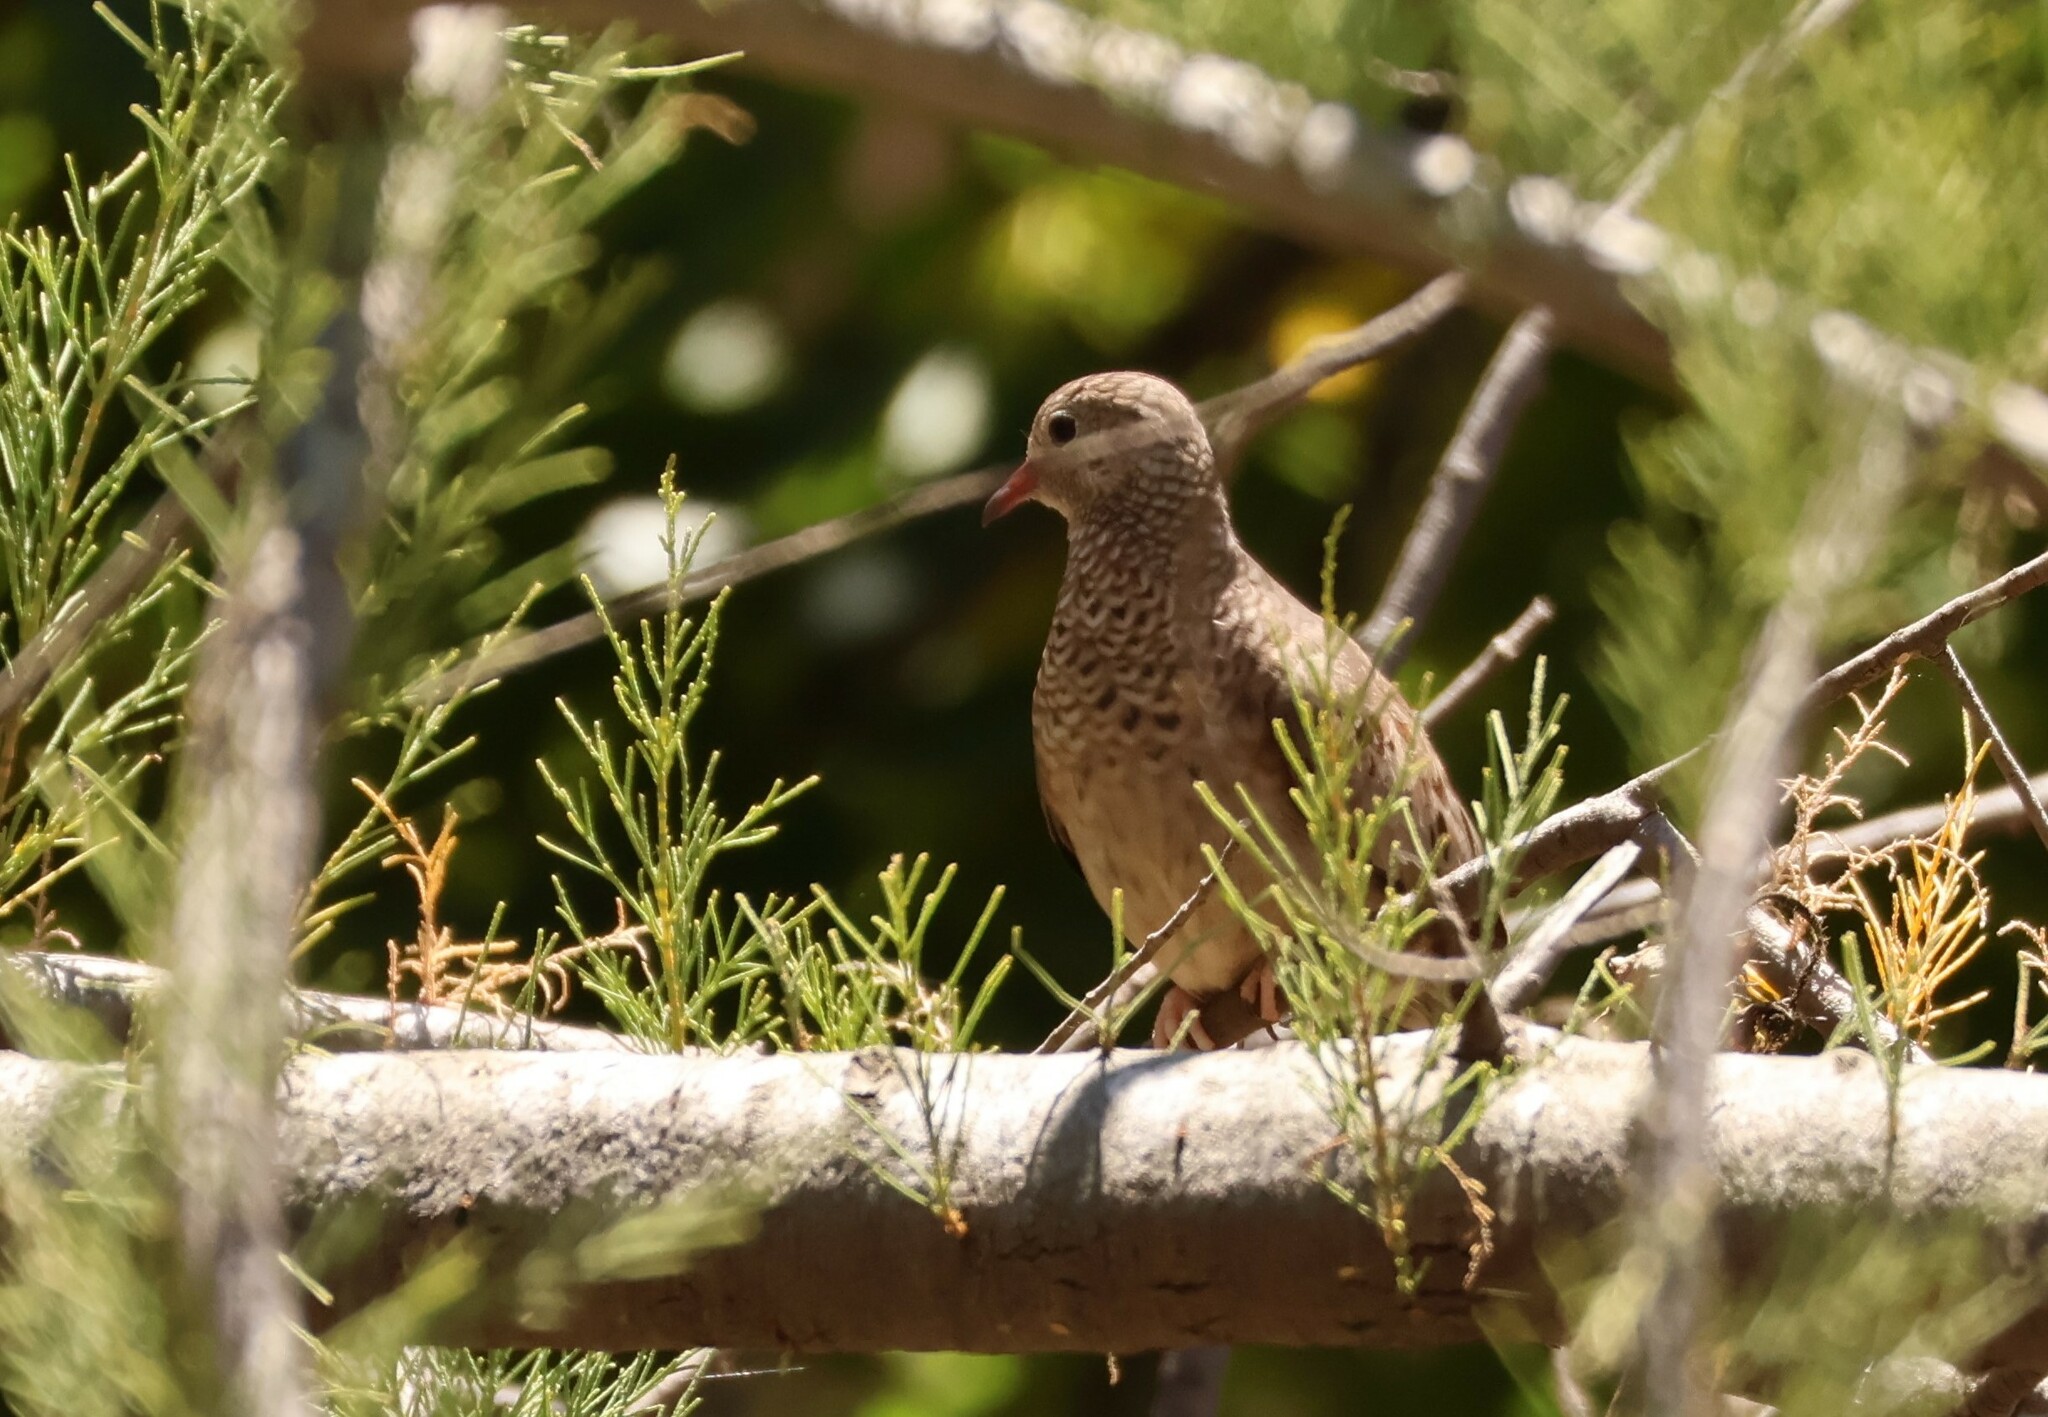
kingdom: Animalia
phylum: Chordata
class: Aves
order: Columbiformes
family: Columbidae
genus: Columbina
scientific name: Columbina passerina
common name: Common ground-dove
